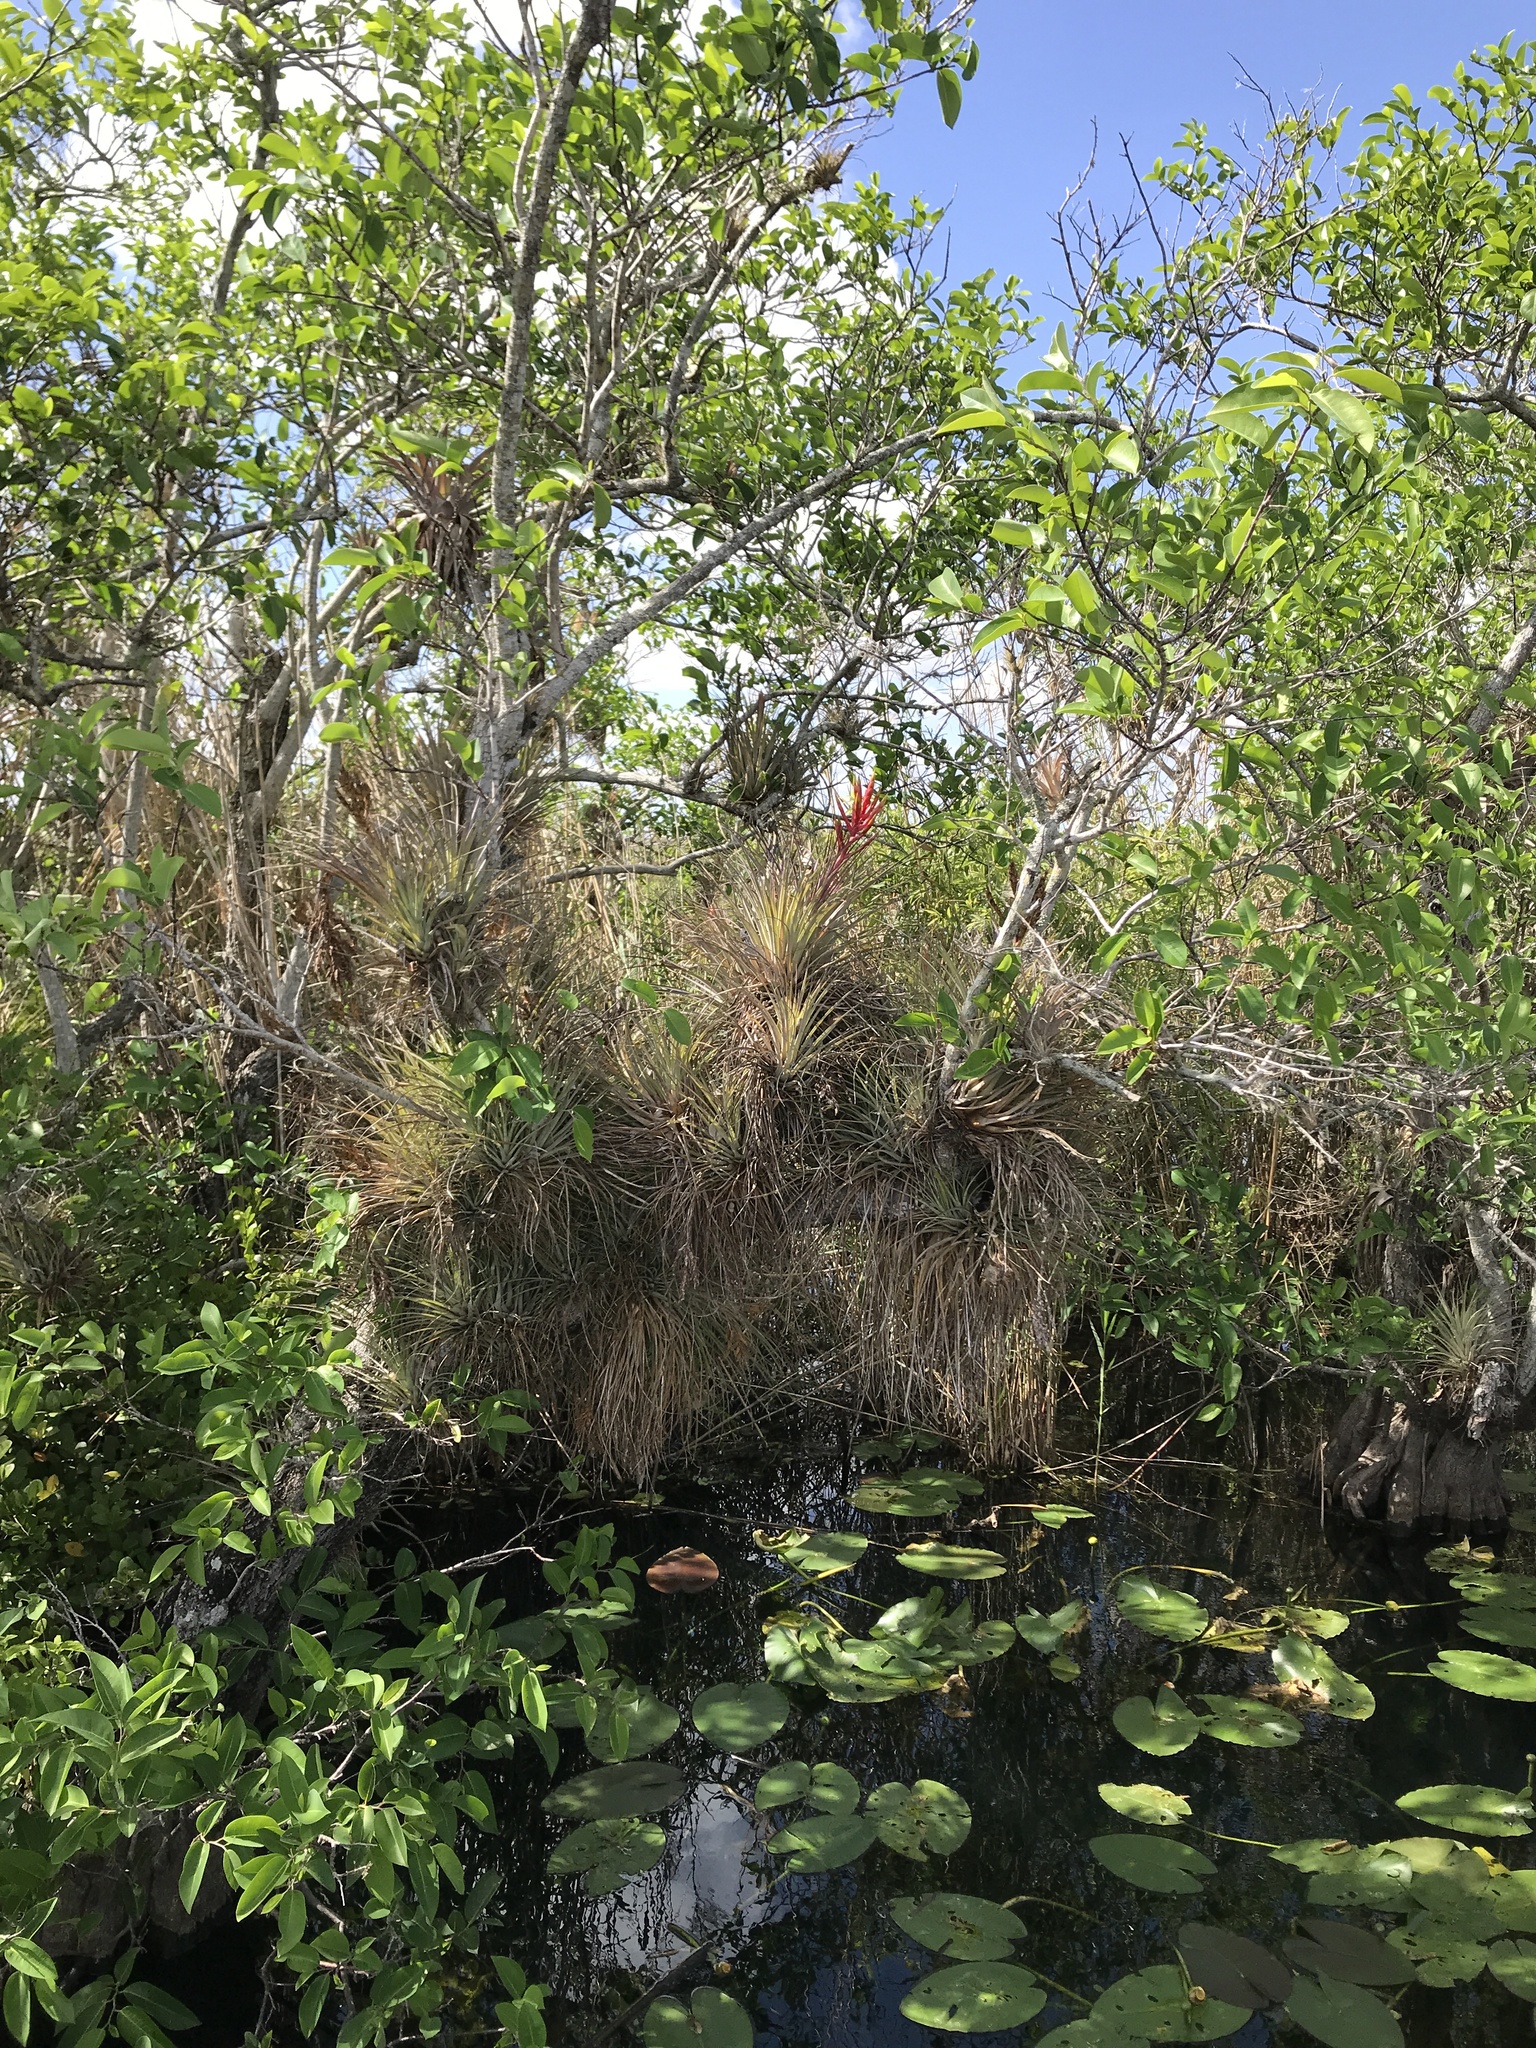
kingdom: Plantae
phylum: Tracheophyta
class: Liliopsida
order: Poales
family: Bromeliaceae
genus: Tillandsia
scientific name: Tillandsia fasciculata
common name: Giant airplant
